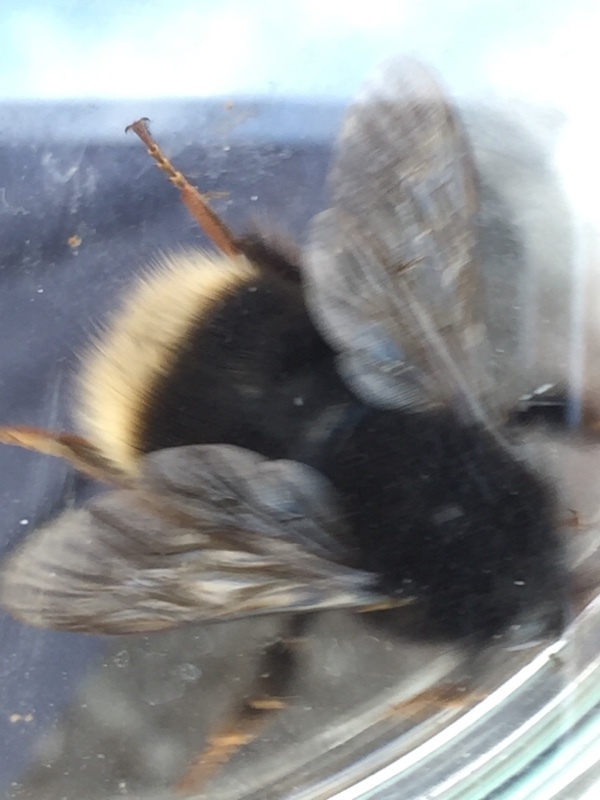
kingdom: Animalia
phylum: Arthropoda
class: Insecta
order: Hymenoptera
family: Apidae
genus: Bombus
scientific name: Bombus terrestris
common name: Buff-tailed bumblebee
